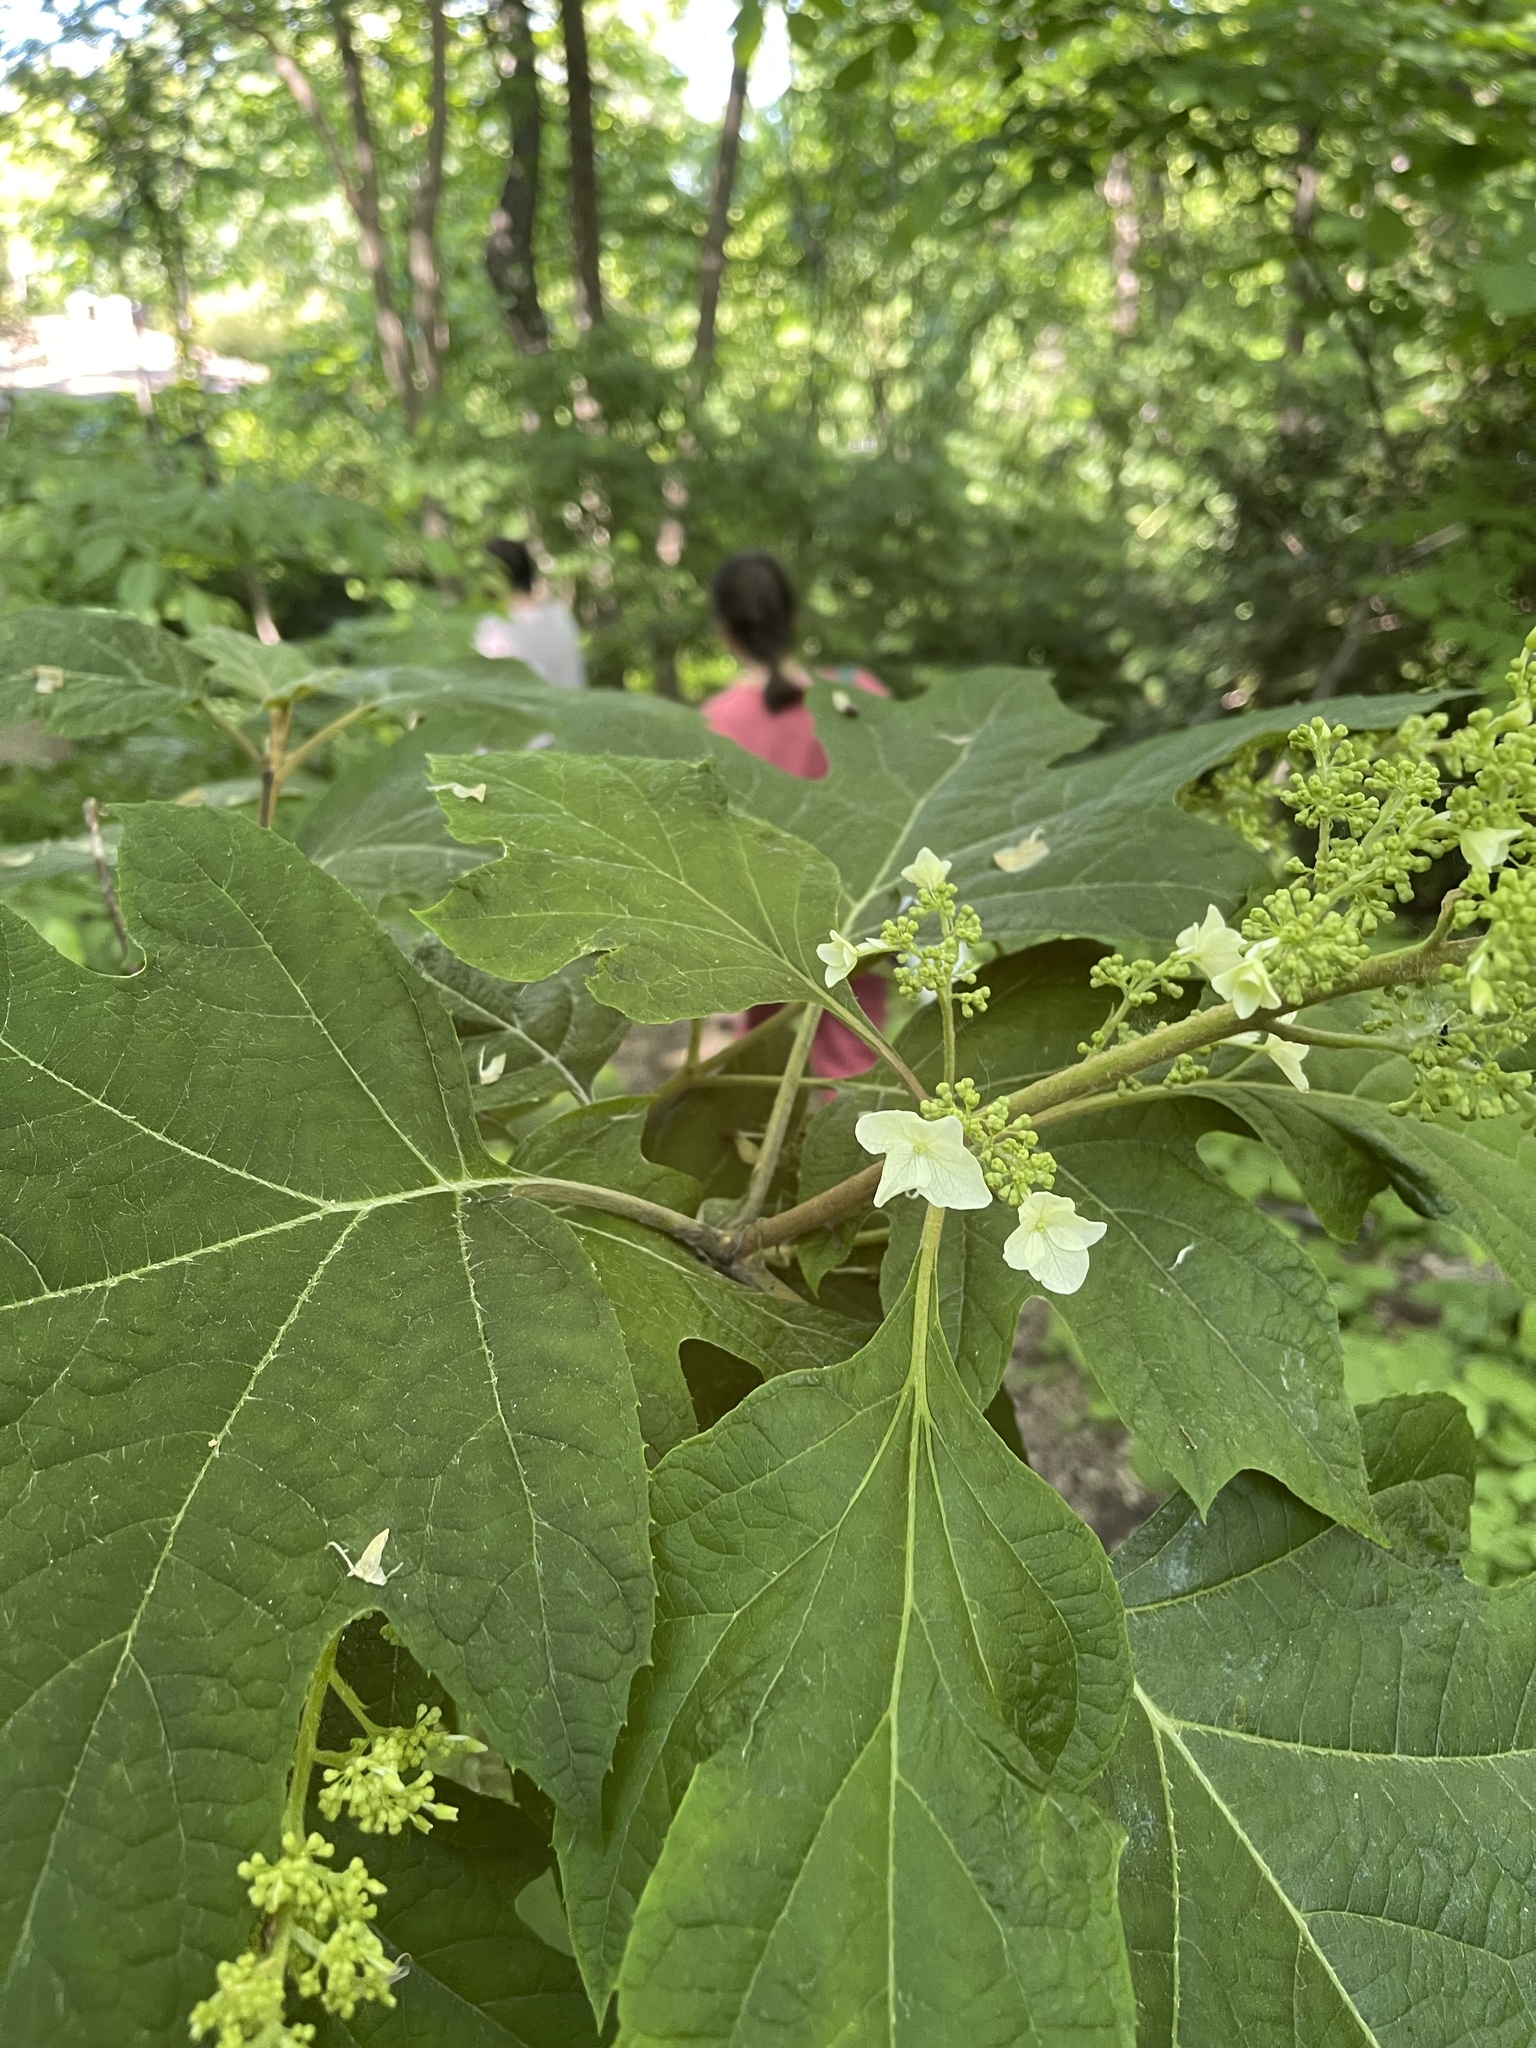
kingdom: Plantae
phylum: Tracheophyta
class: Magnoliopsida
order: Cornales
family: Hydrangeaceae
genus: Hydrangea
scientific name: Hydrangea quercifolia
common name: Oak-leaf hydrangea
